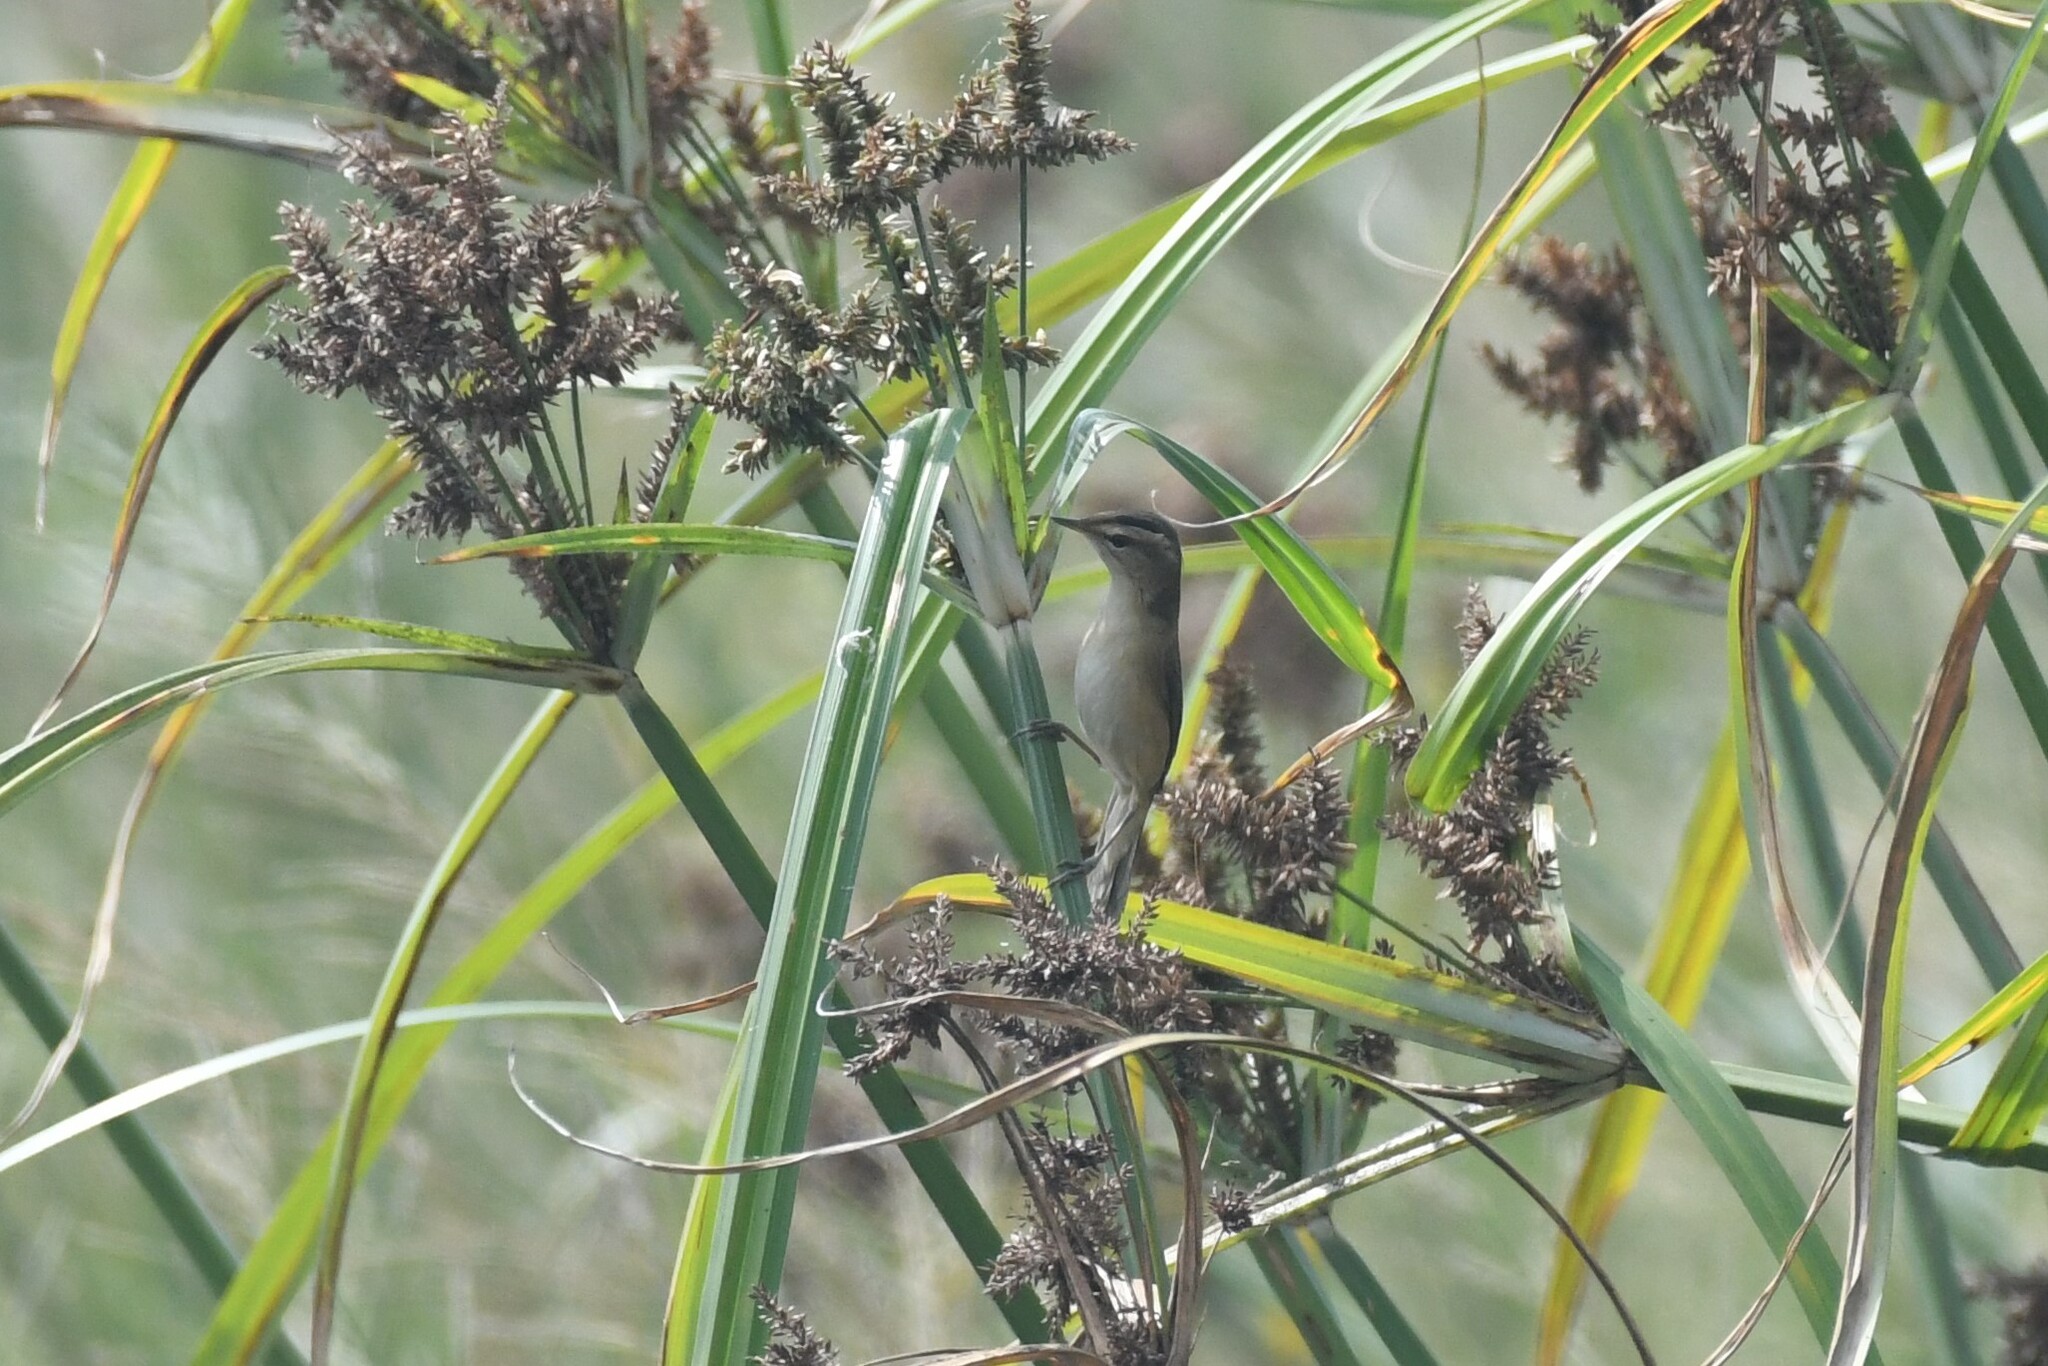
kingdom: Animalia
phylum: Chordata
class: Aves
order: Passeriformes
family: Acrocephalidae
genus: Acrocephalus
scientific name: Acrocephalus bistrigiceps
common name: Black-browed reed warbler
